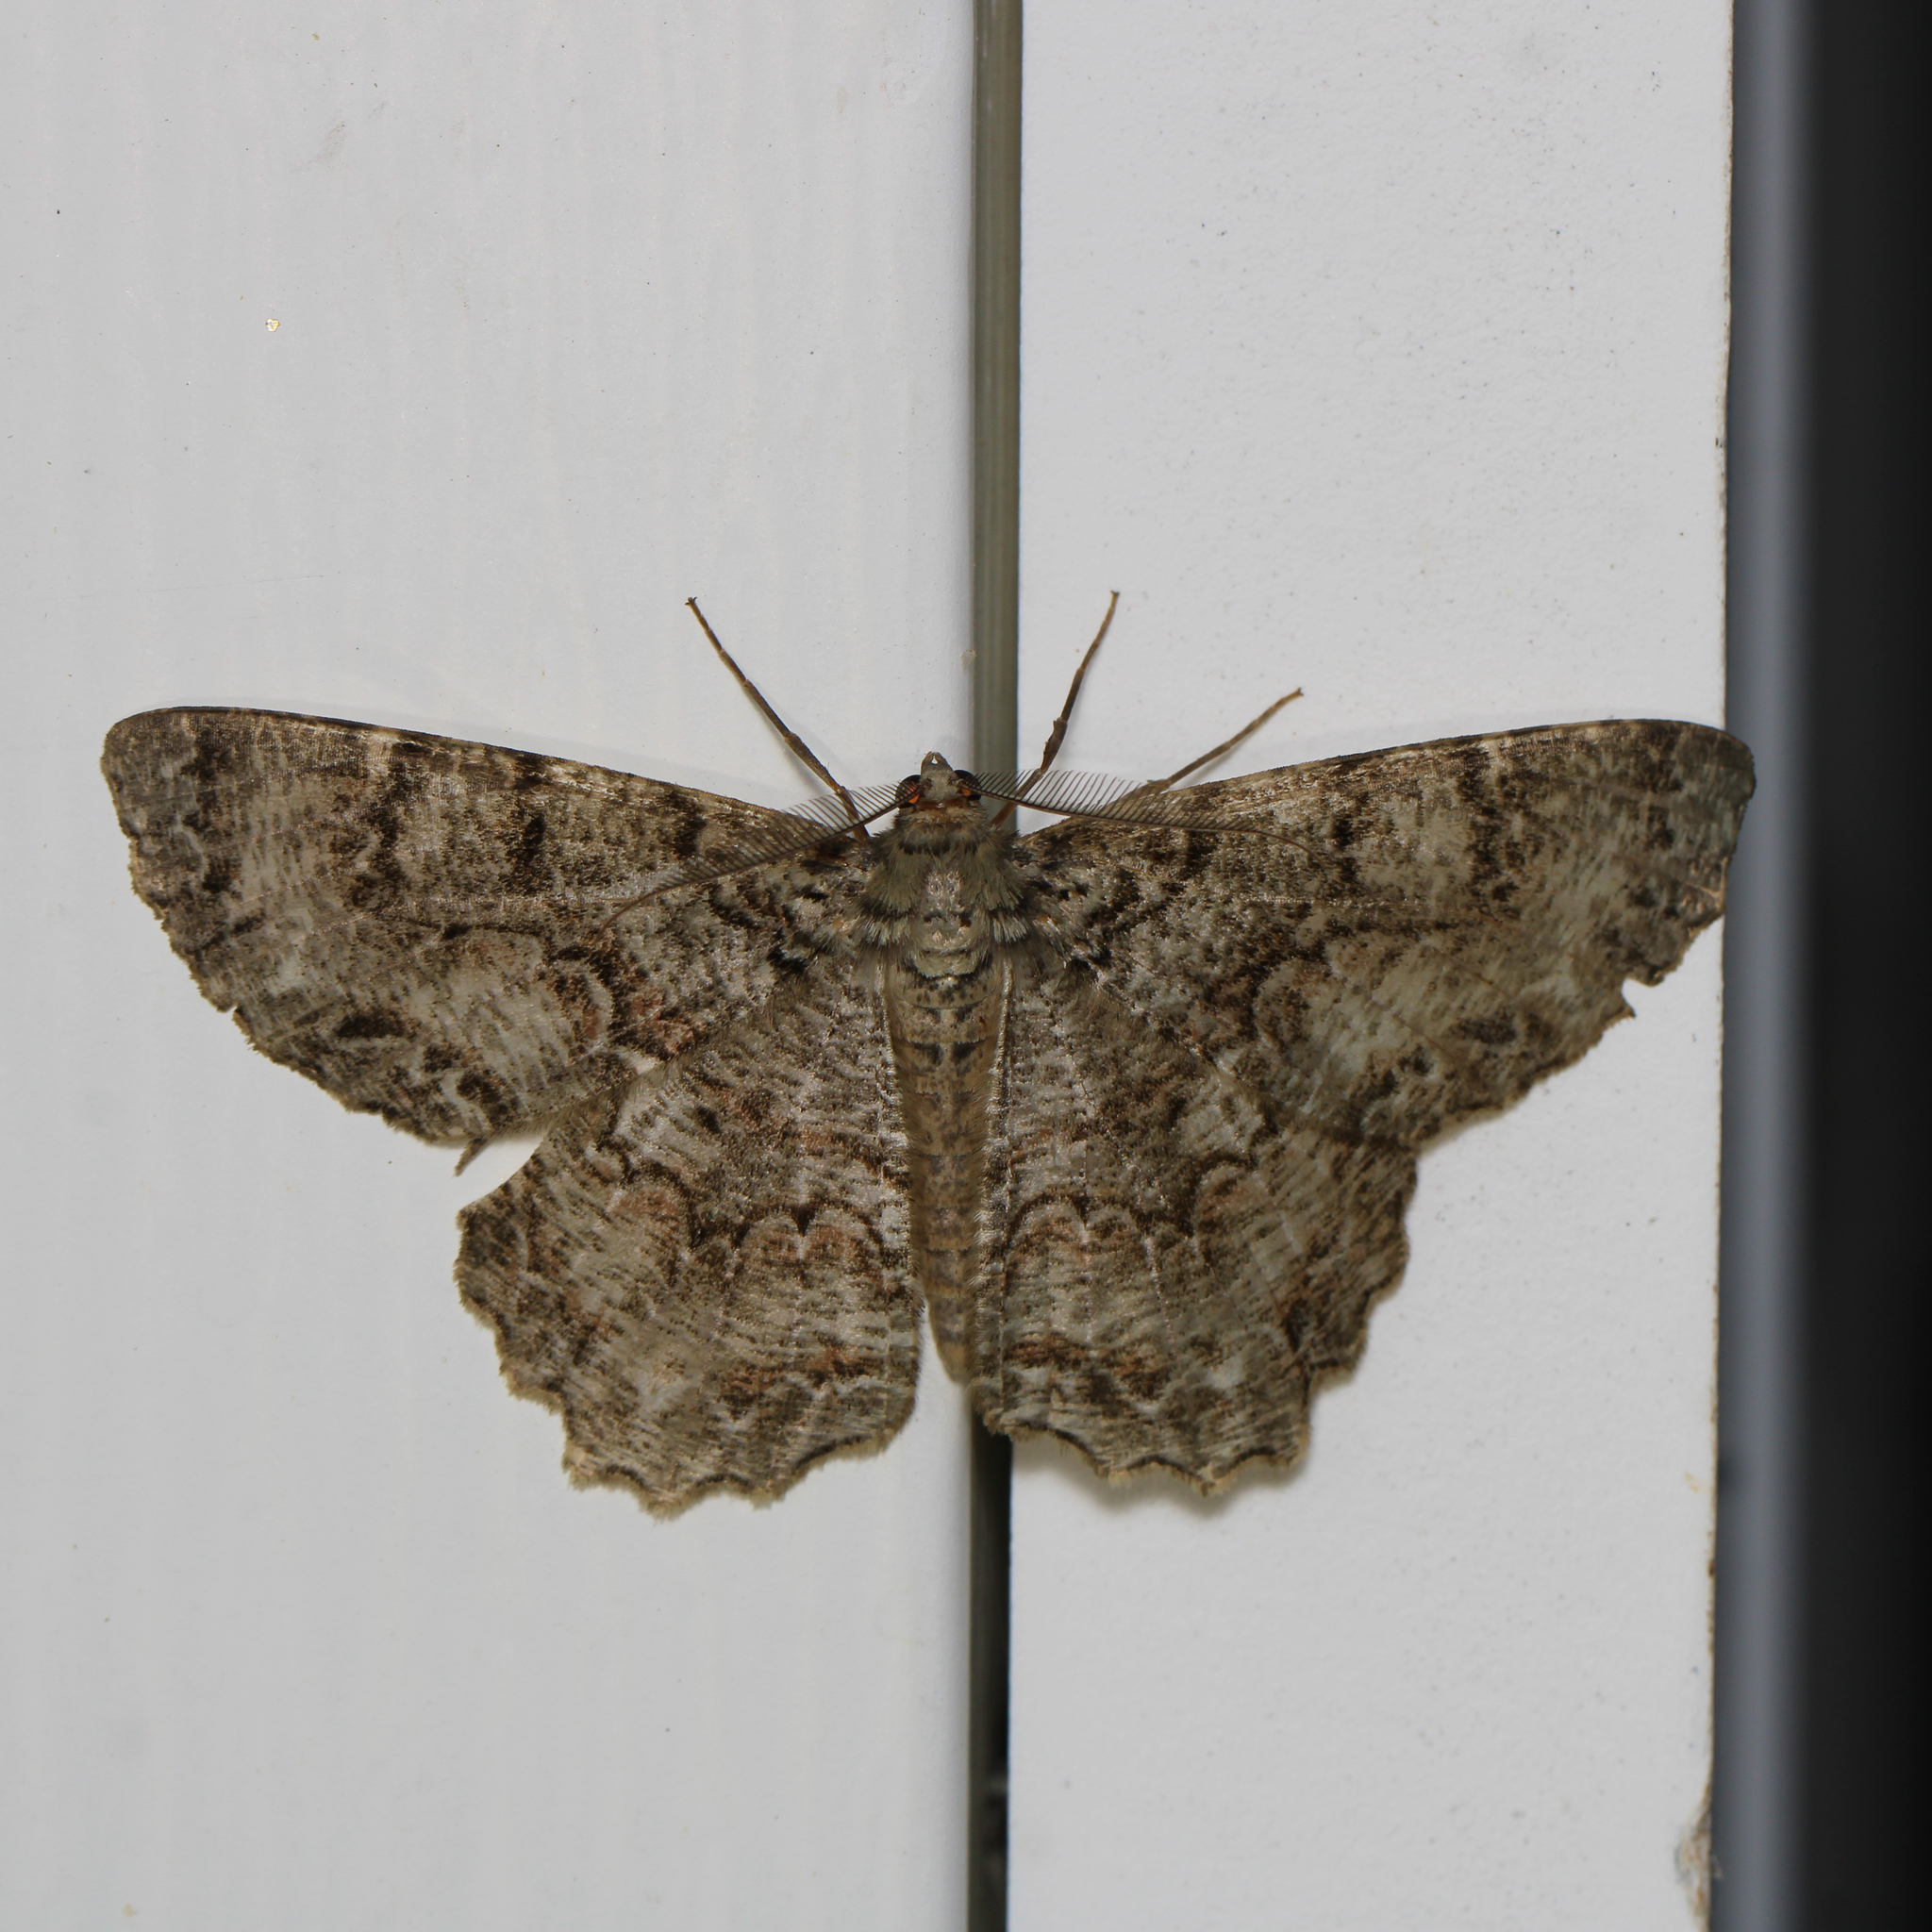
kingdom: Animalia
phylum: Arthropoda
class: Insecta
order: Lepidoptera
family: Geometridae
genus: Epimecis
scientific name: Epimecis hortaria
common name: Tulip-tree beauty
